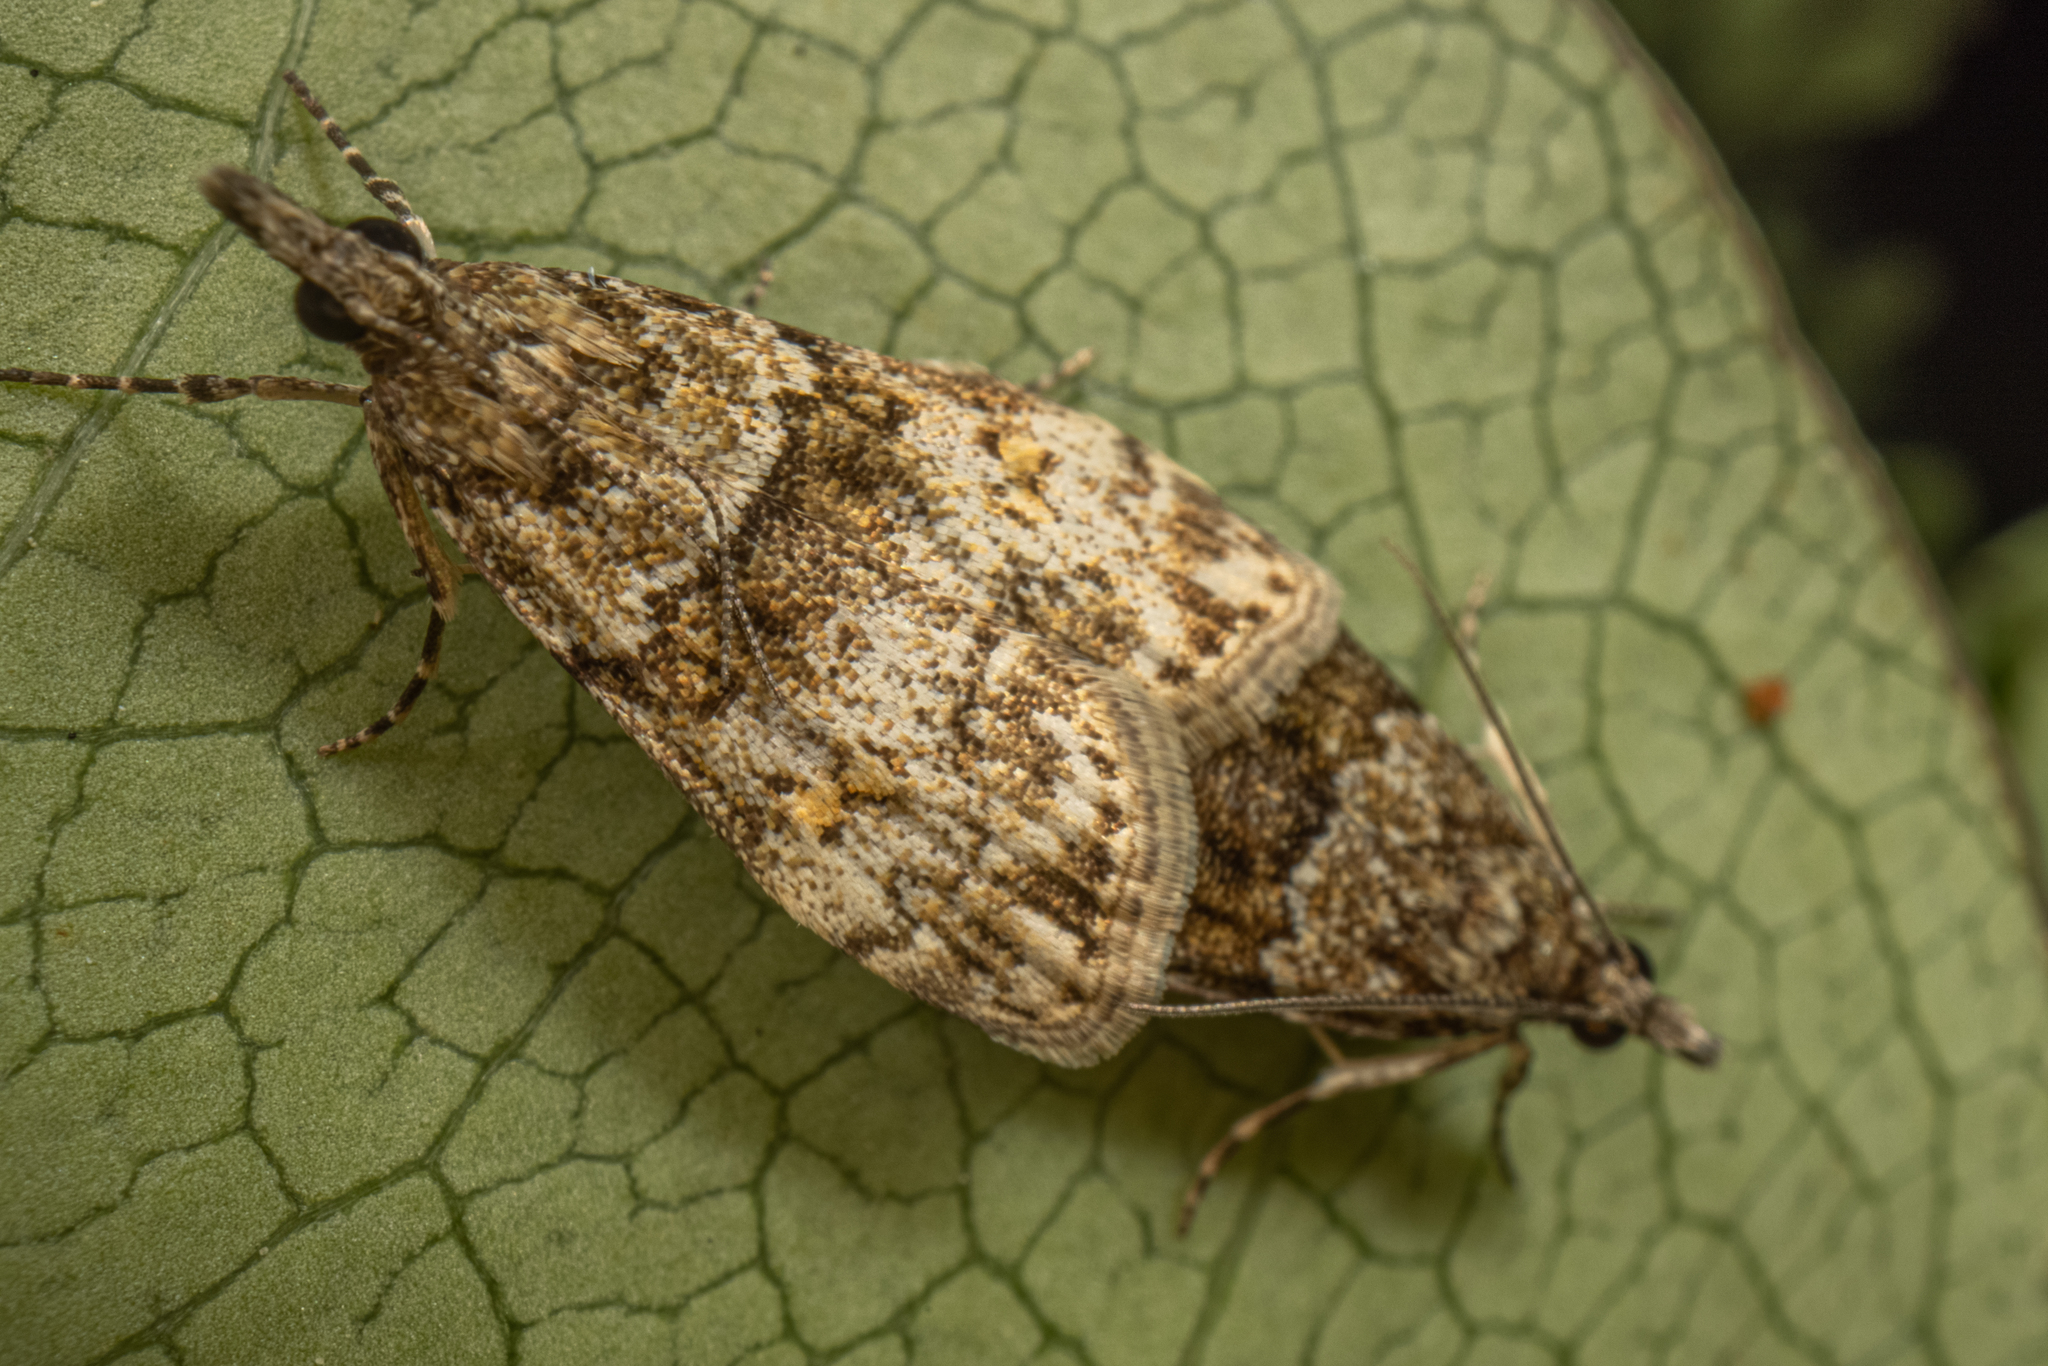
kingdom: Animalia
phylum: Arthropoda
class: Insecta
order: Lepidoptera
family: Crambidae
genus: Eudonia
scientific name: Eudonia subditella
